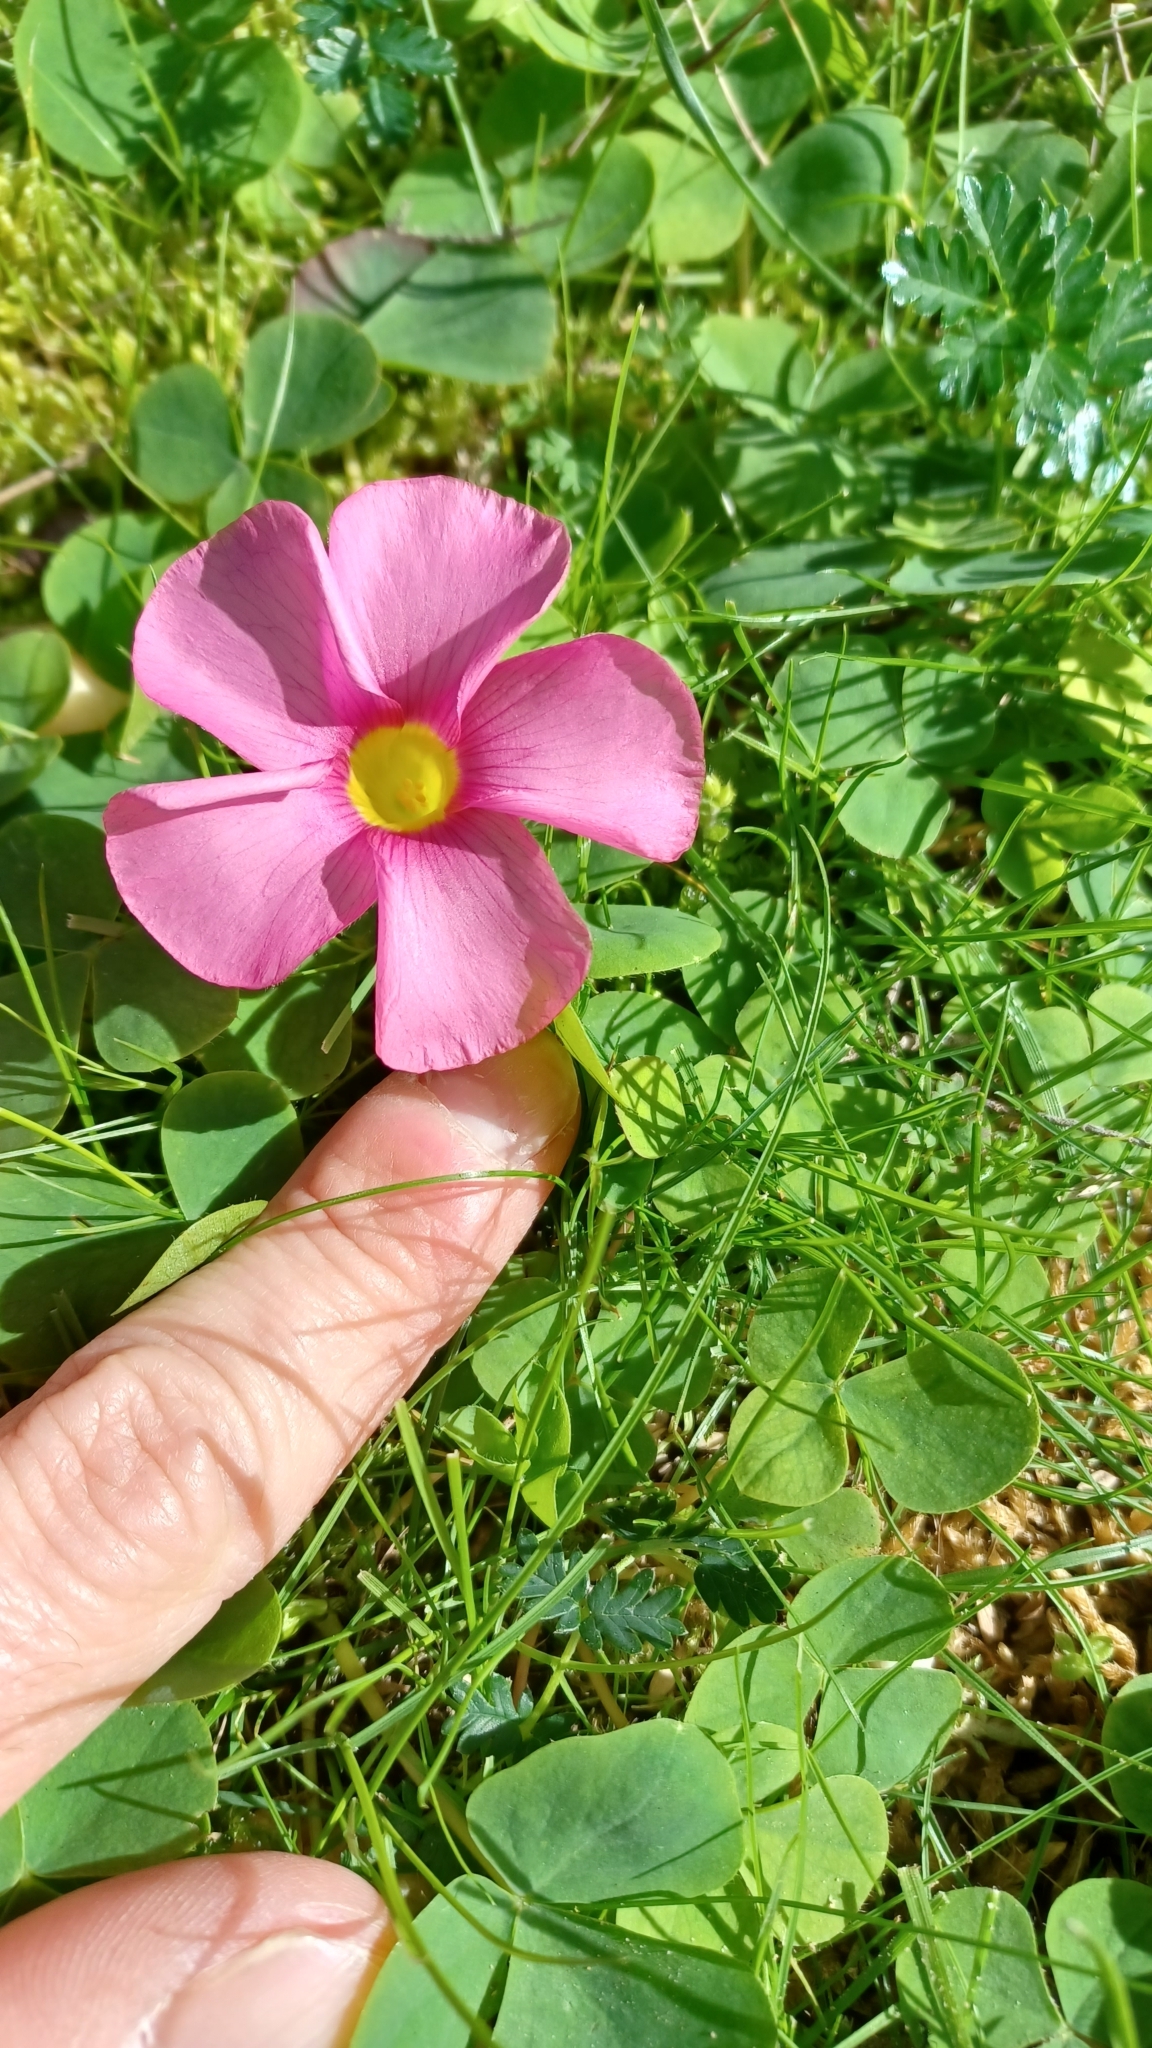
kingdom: Plantae
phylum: Tracheophyta
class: Magnoliopsida
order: Oxalidales
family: Oxalidaceae
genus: Oxalis
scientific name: Oxalis purpurea
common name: Purple woodsorrel
